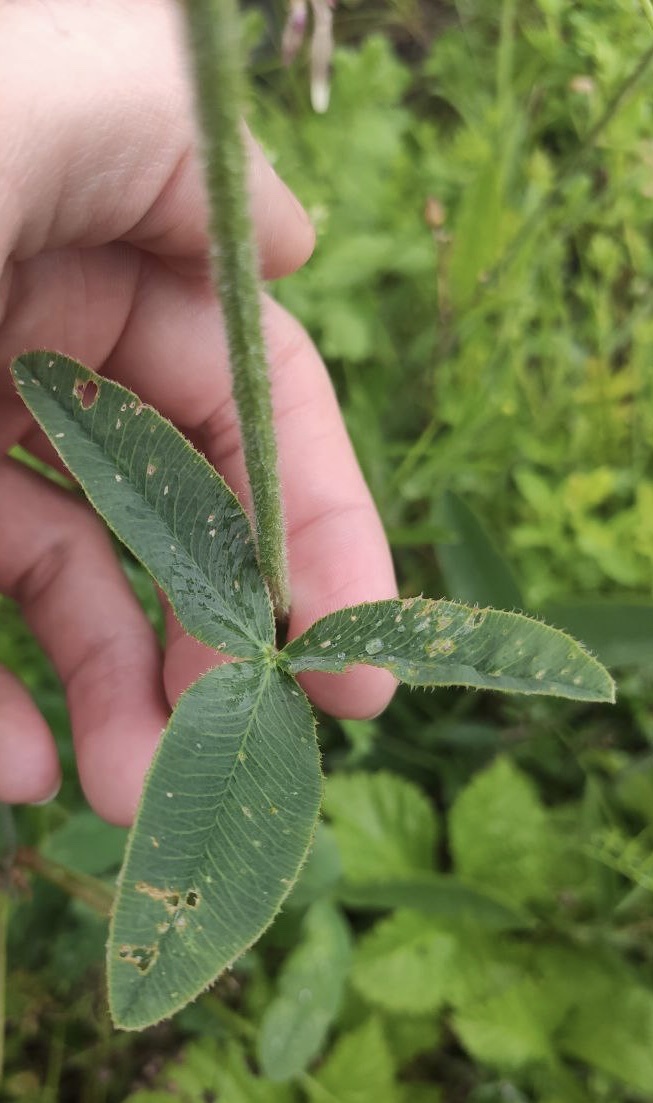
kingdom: Plantae
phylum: Tracheophyta
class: Magnoliopsida
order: Fabales
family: Fabaceae
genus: Trifolium
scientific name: Trifolium montanum
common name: Mountain clover
